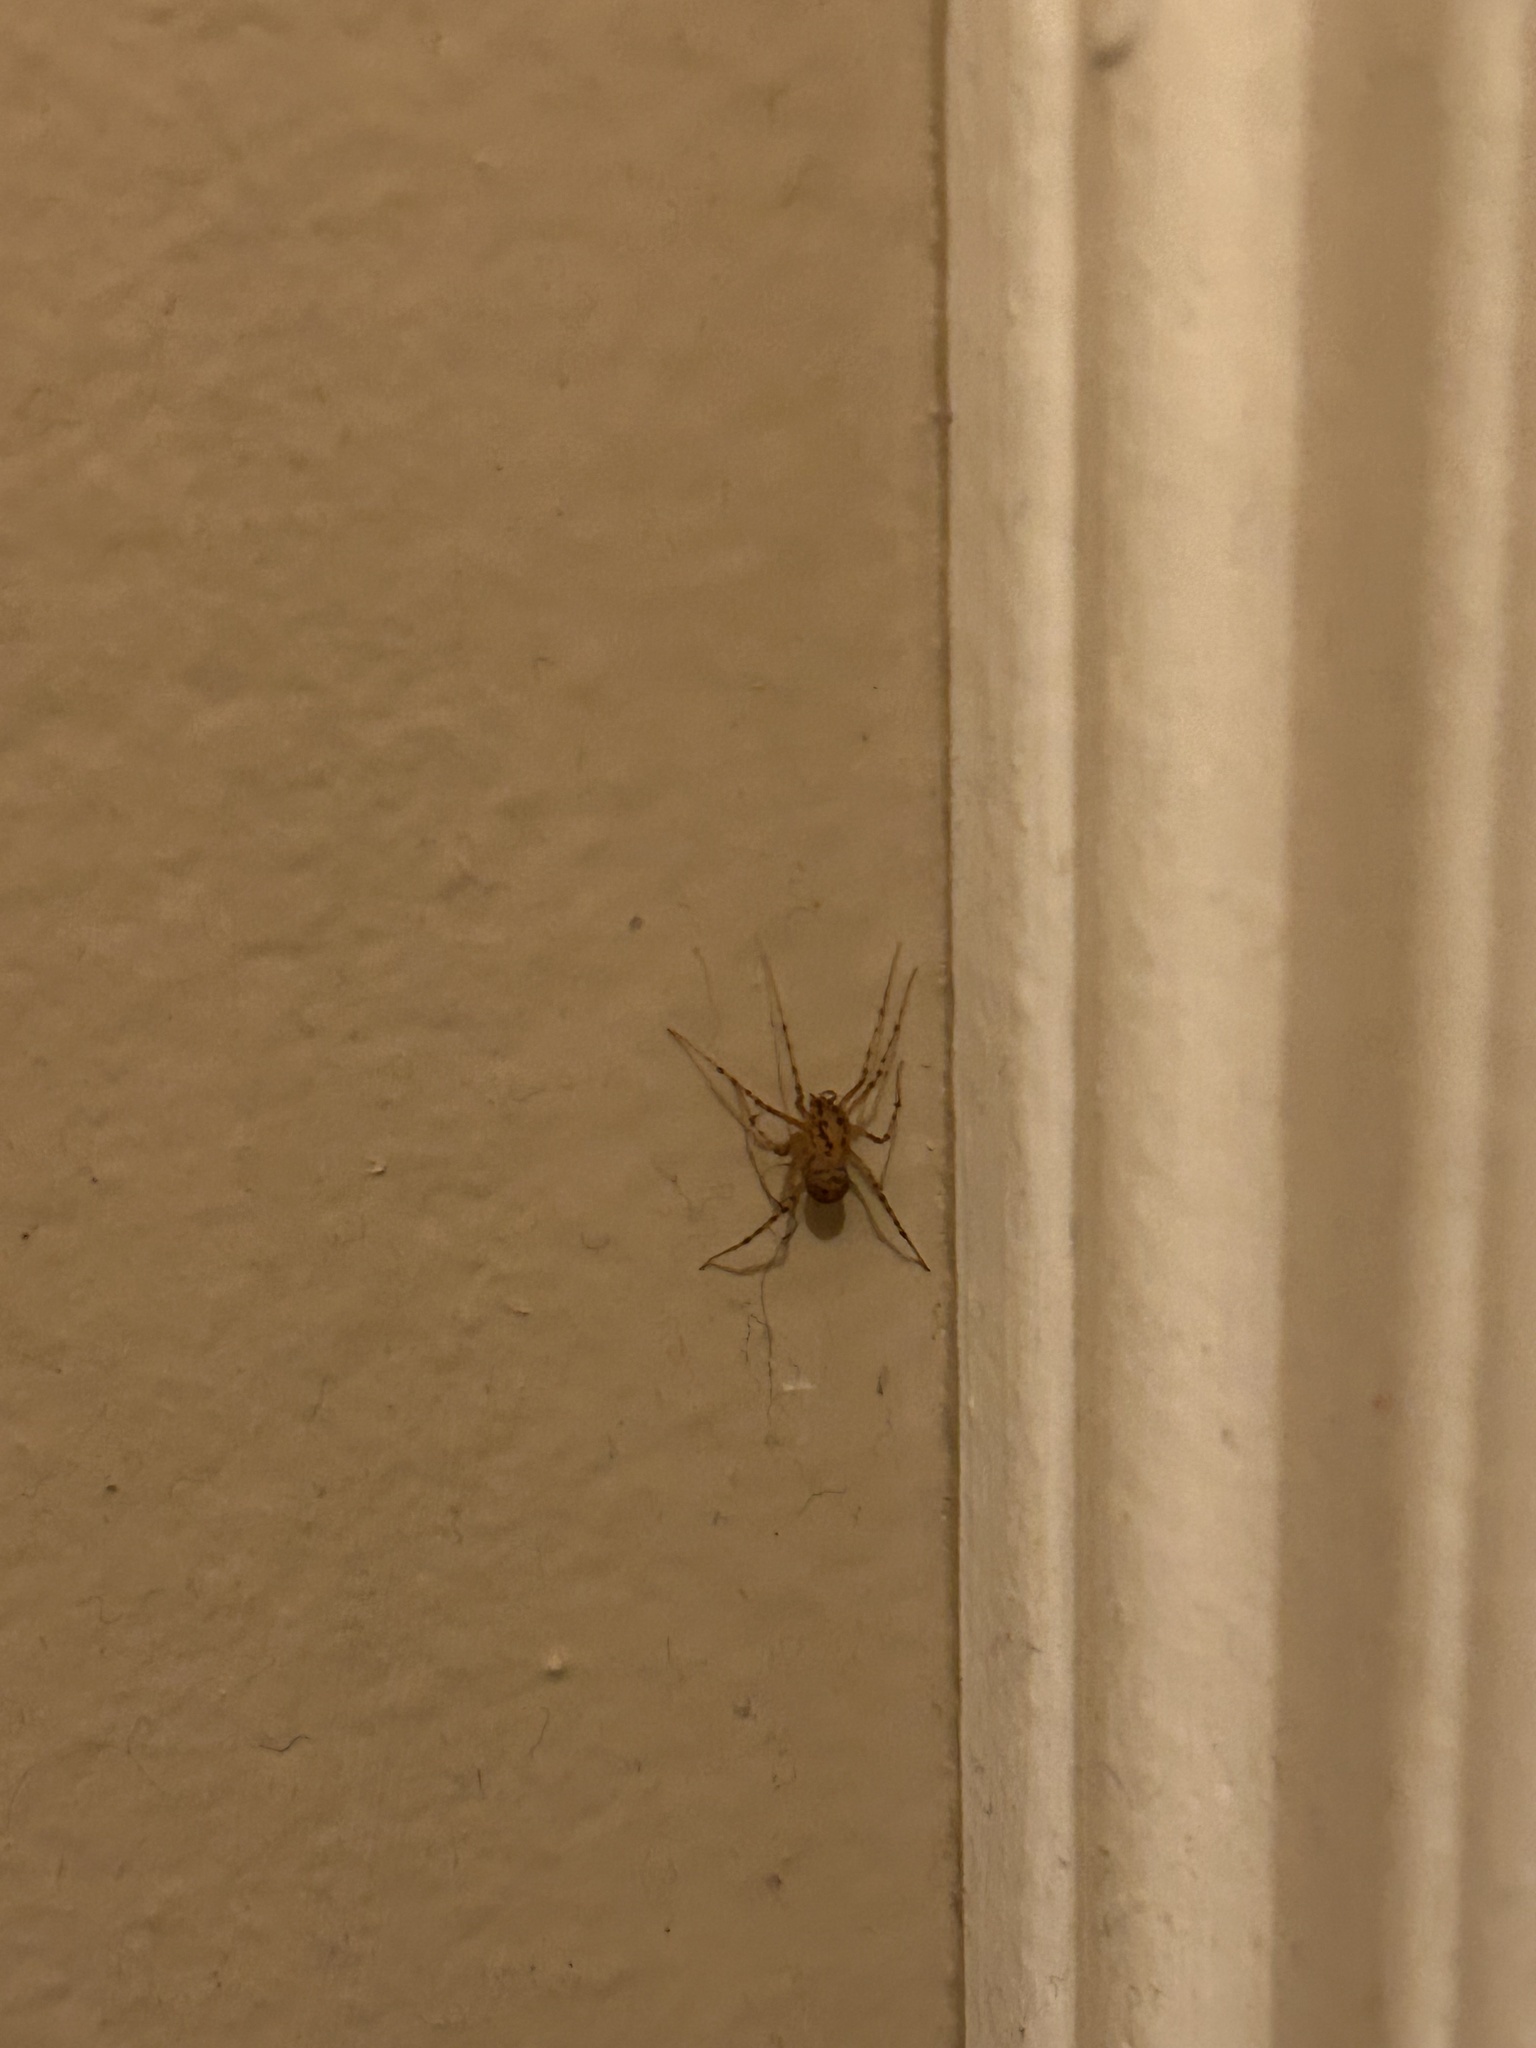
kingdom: Animalia
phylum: Arthropoda
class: Arachnida
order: Araneae
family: Scytodidae
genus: Scytodes
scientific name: Scytodes thoracica
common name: Spitting spider
